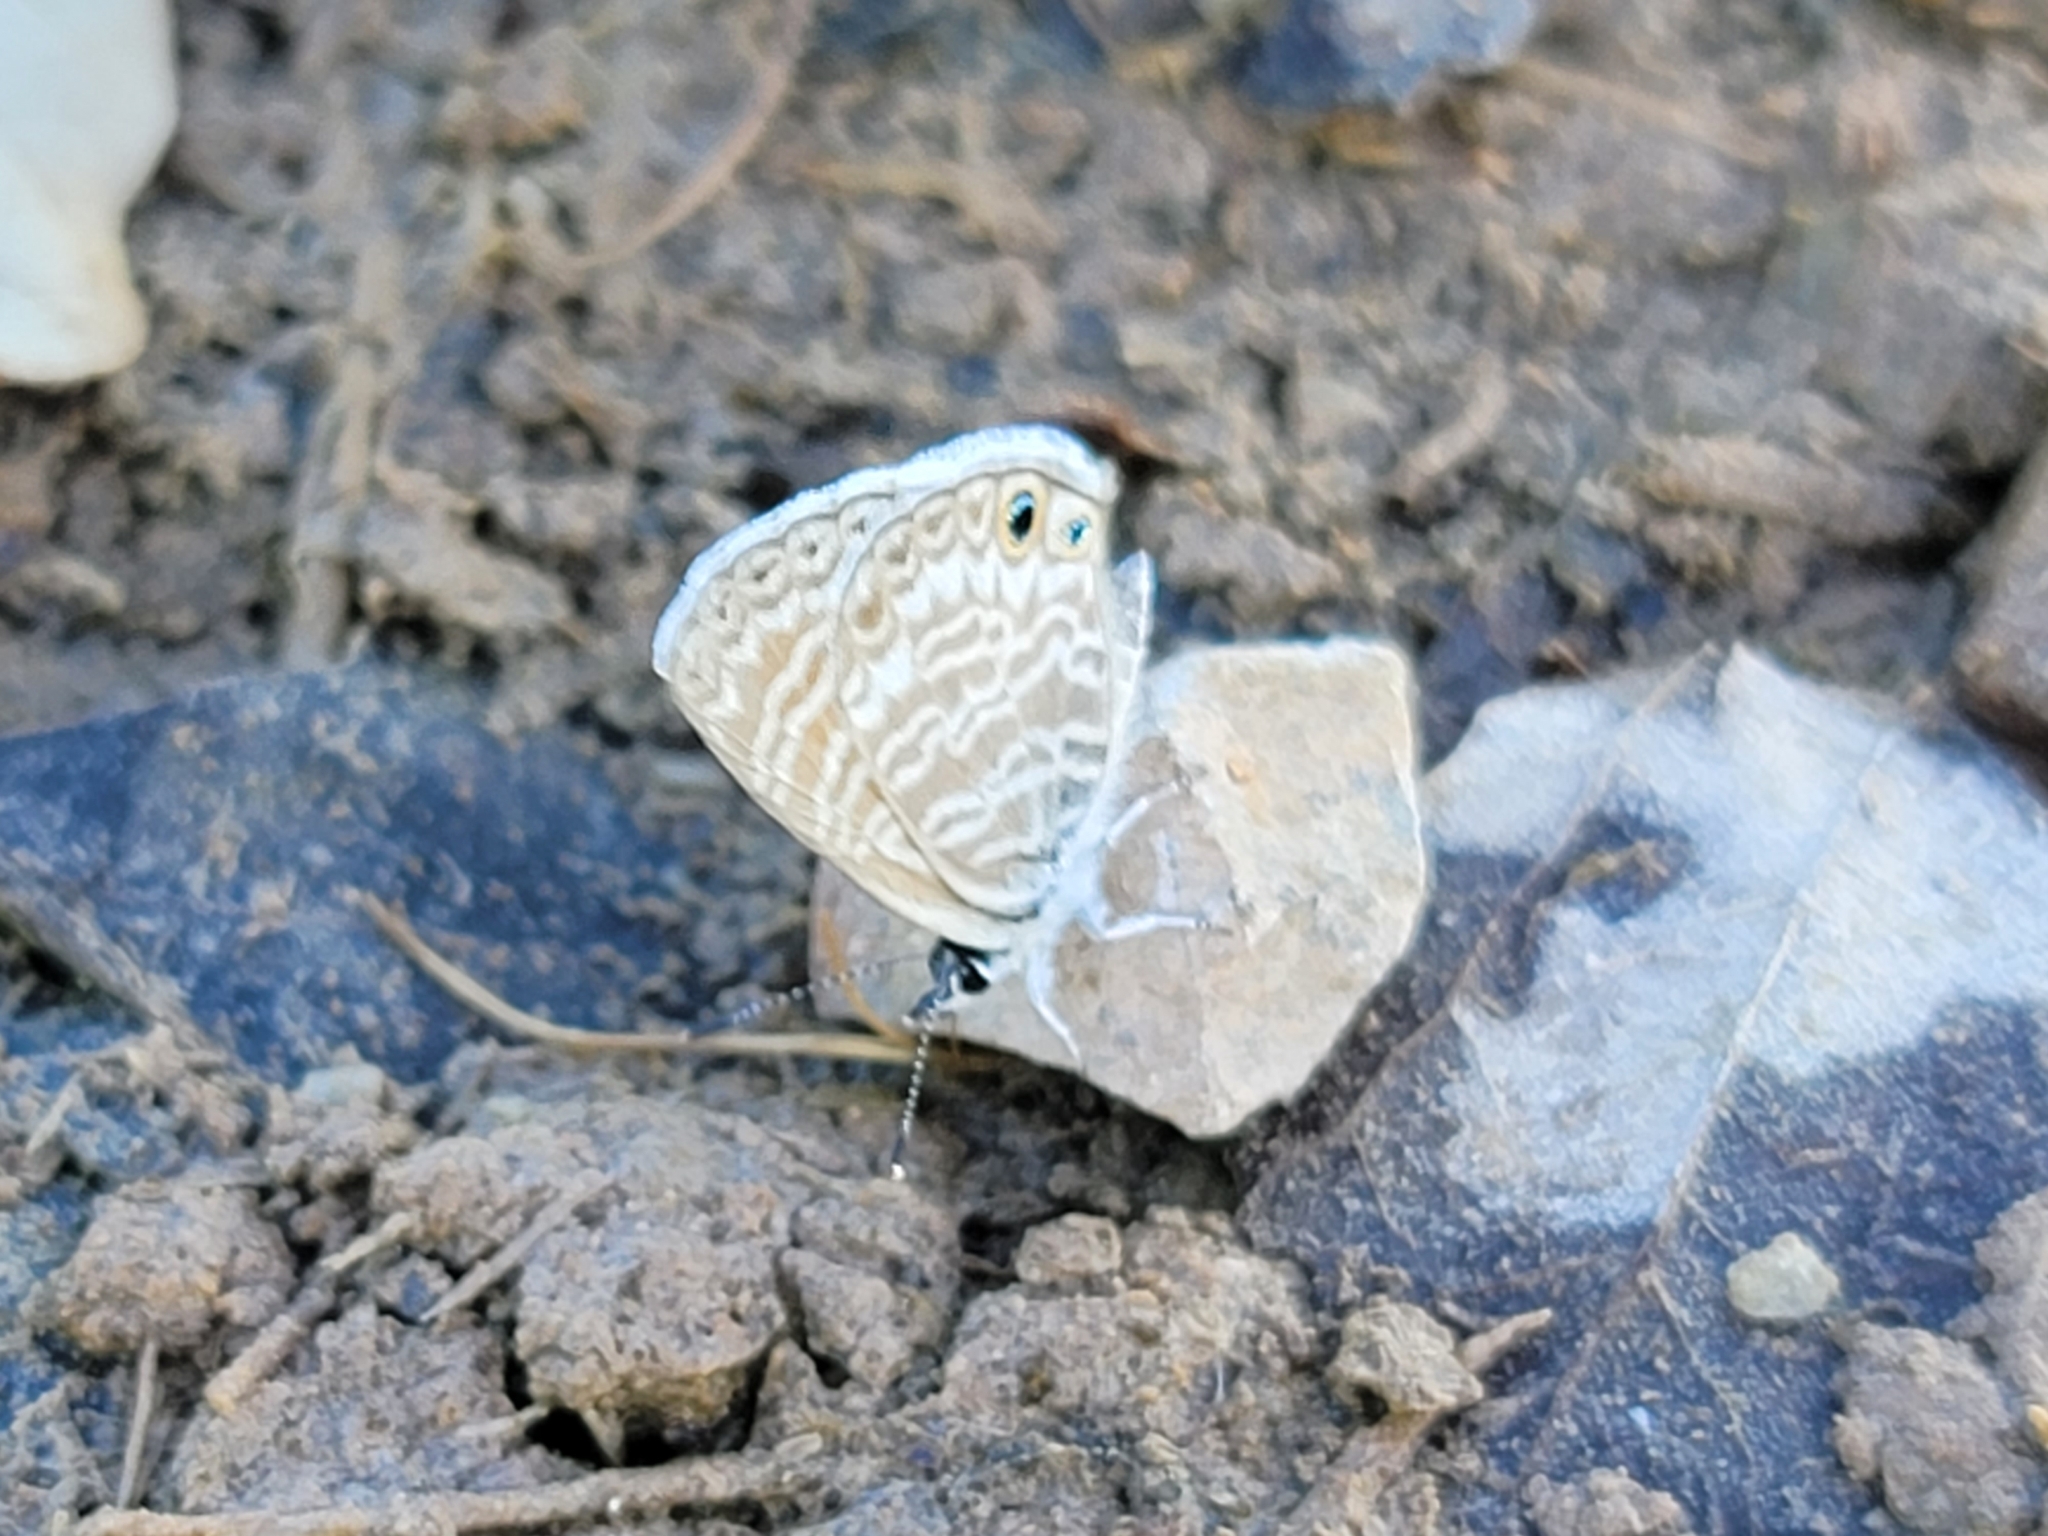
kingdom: Animalia
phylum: Arthropoda
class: Insecta
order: Lepidoptera
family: Lycaenidae
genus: Leptotes
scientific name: Leptotes marina
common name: Marine blue
